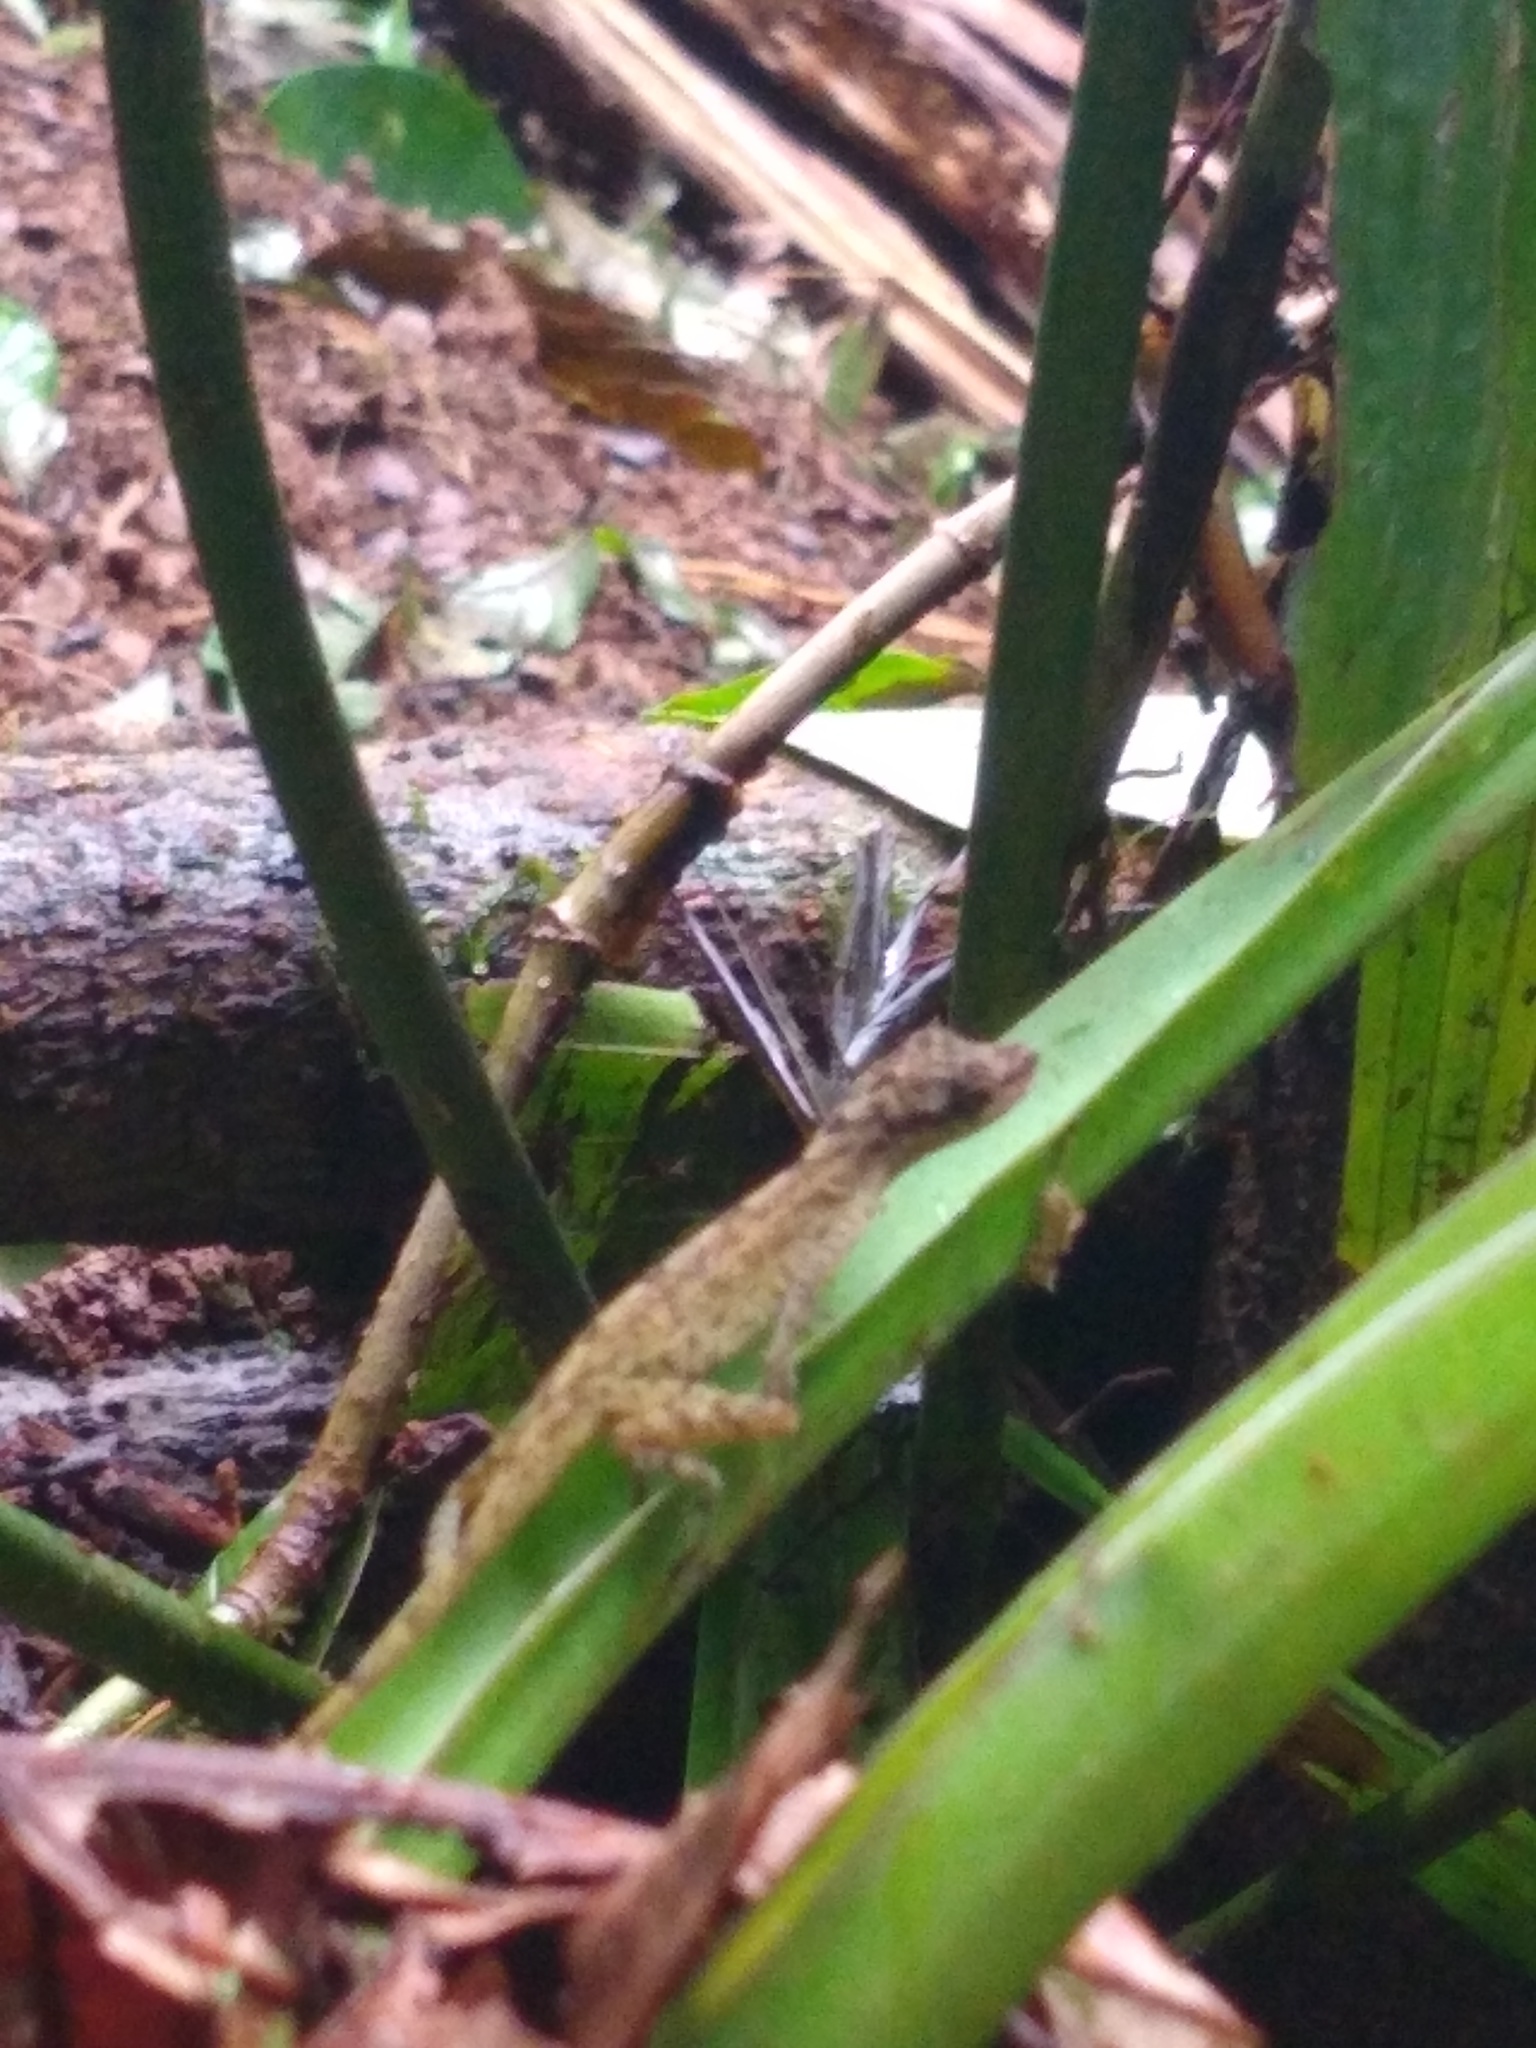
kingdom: Animalia
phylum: Chordata
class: Squamata
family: Dactyloidae
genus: Anolis
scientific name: Anolis lemurinus
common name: Ghost anole
